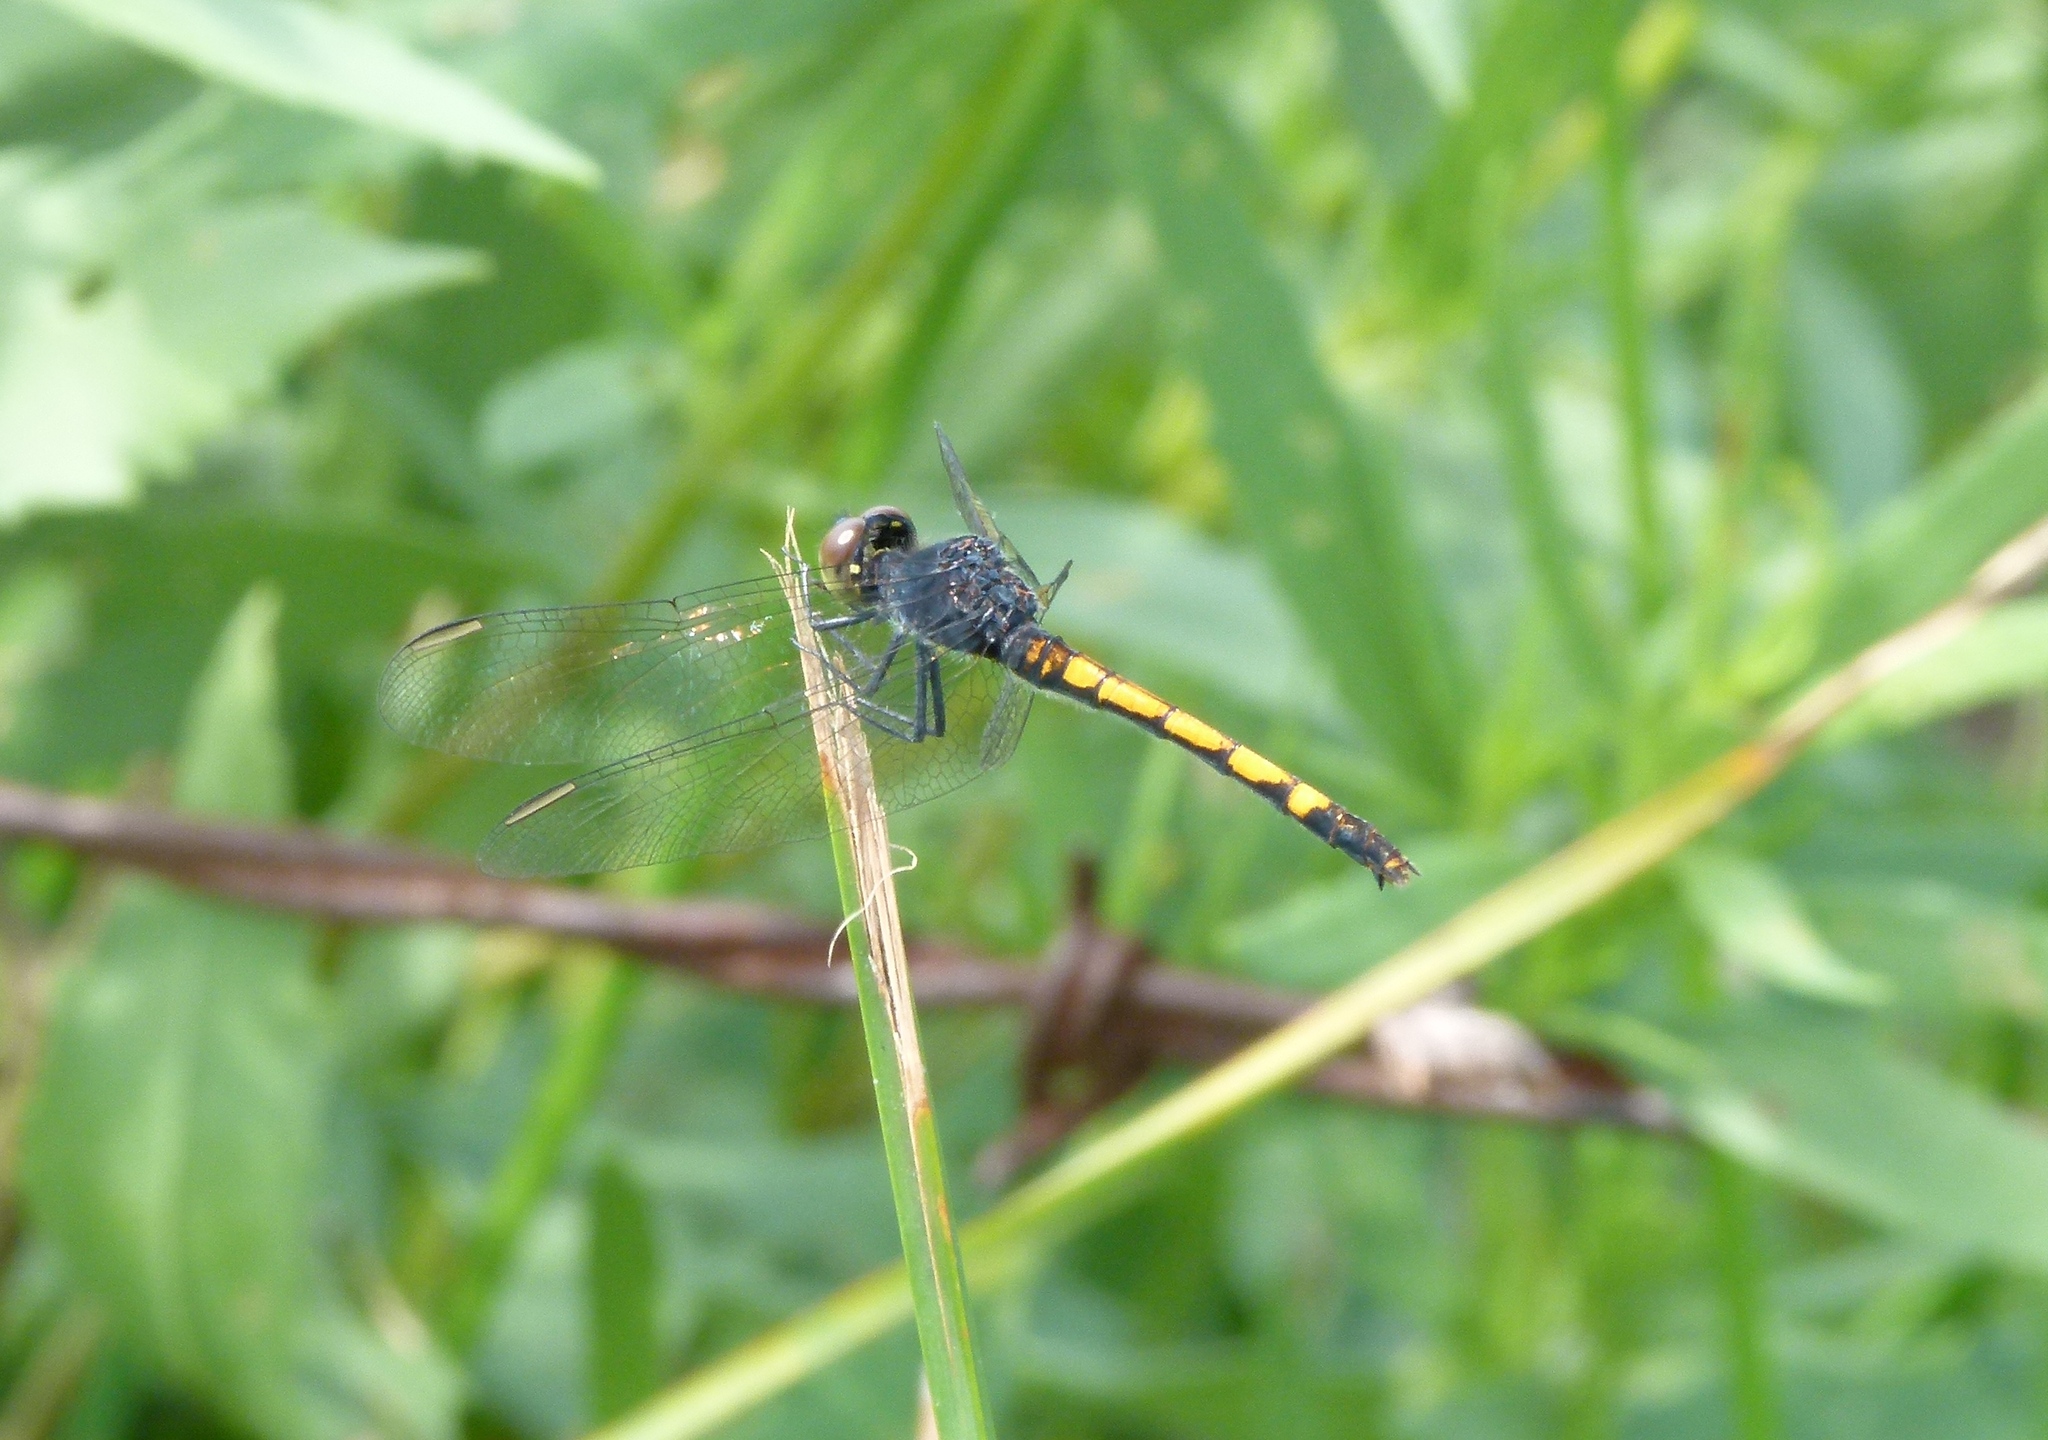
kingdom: Animalia
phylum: Arthropoda
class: Insecta
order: Odonata
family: Libellulidae
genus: Erythrodiplax
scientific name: Erythrodiplax berenice
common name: Seaside dragonlet
